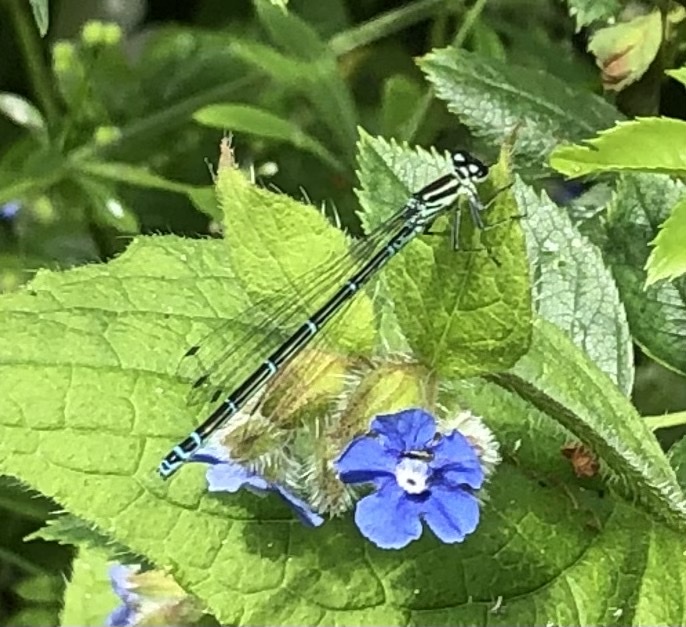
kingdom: Animalia
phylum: Arthropoda
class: Insecta
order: Odonata
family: Coenagrionidae
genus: Coenagrion
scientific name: Coenagrion puella
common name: Azure damselfly
